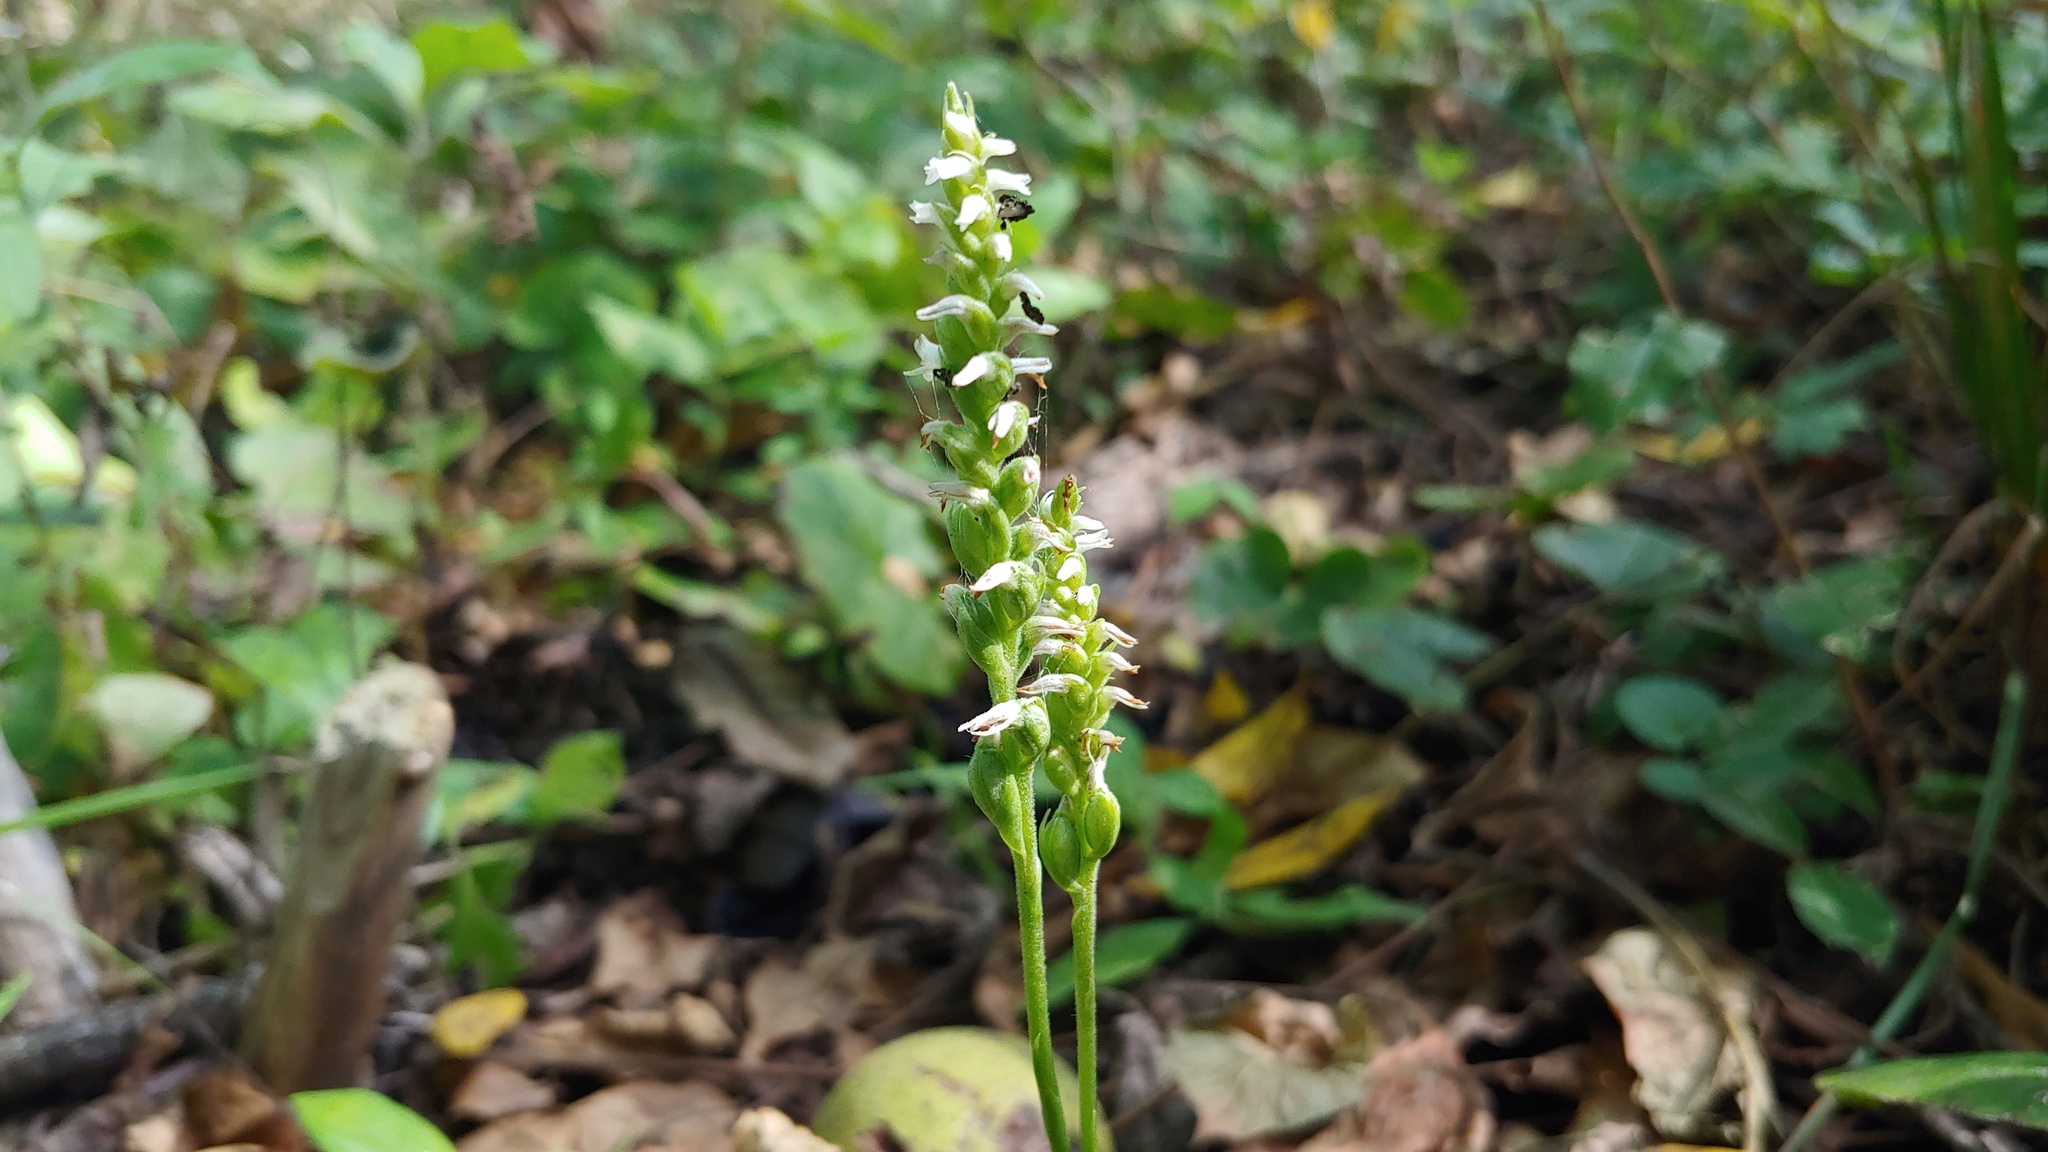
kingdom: Plantae
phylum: Tracheophyta
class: Liliopsida
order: Asparagales
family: Orchidaceae
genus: Spiranthes
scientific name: Spiranthes ovalis
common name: October ladies'-tresses
